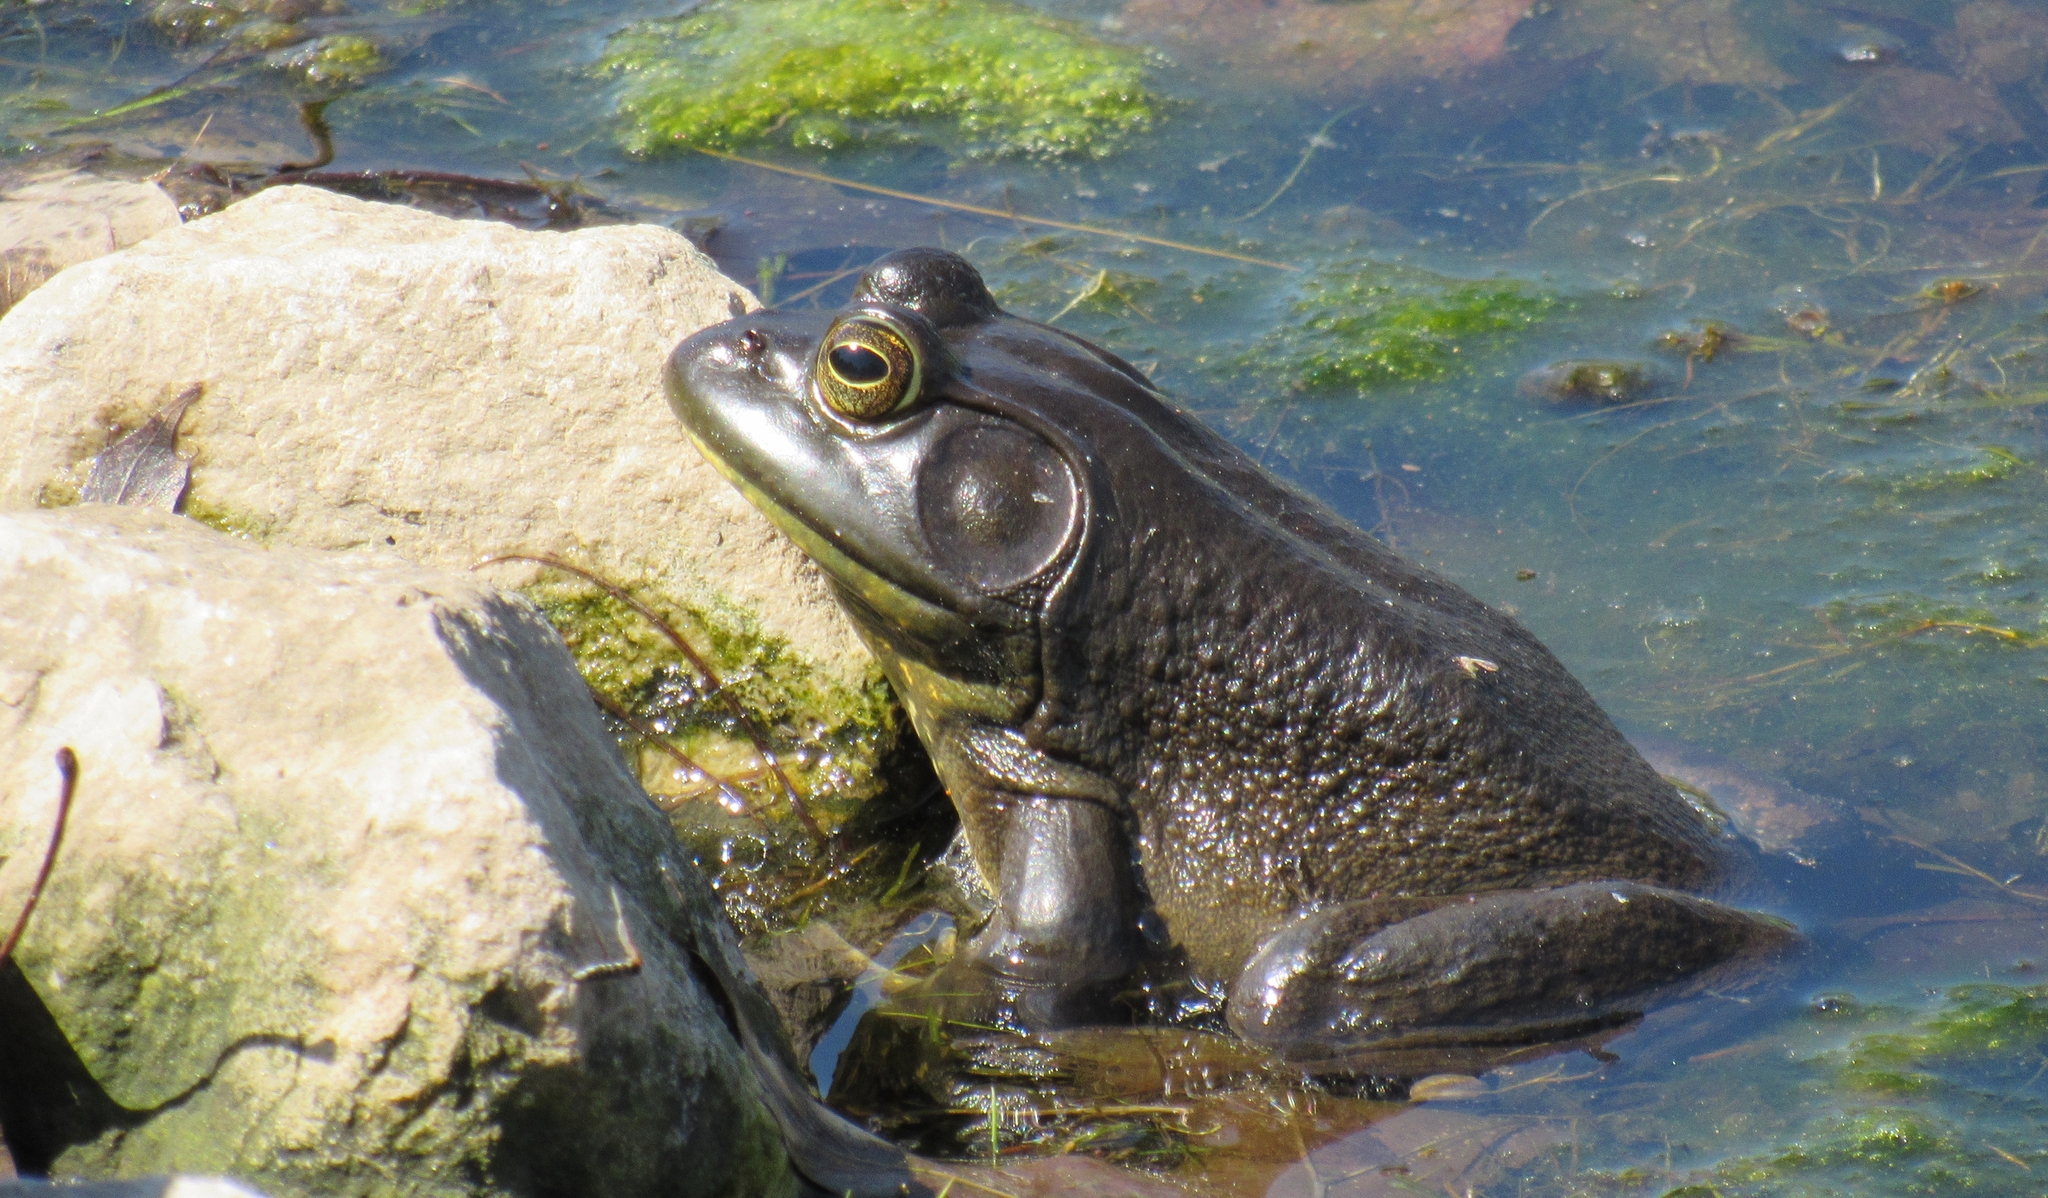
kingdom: Animalia
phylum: Chordata
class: Amphibia
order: Anura
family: Ranidae
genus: Lithobates
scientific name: Lithobates catesbeianus
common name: American bullfrog
